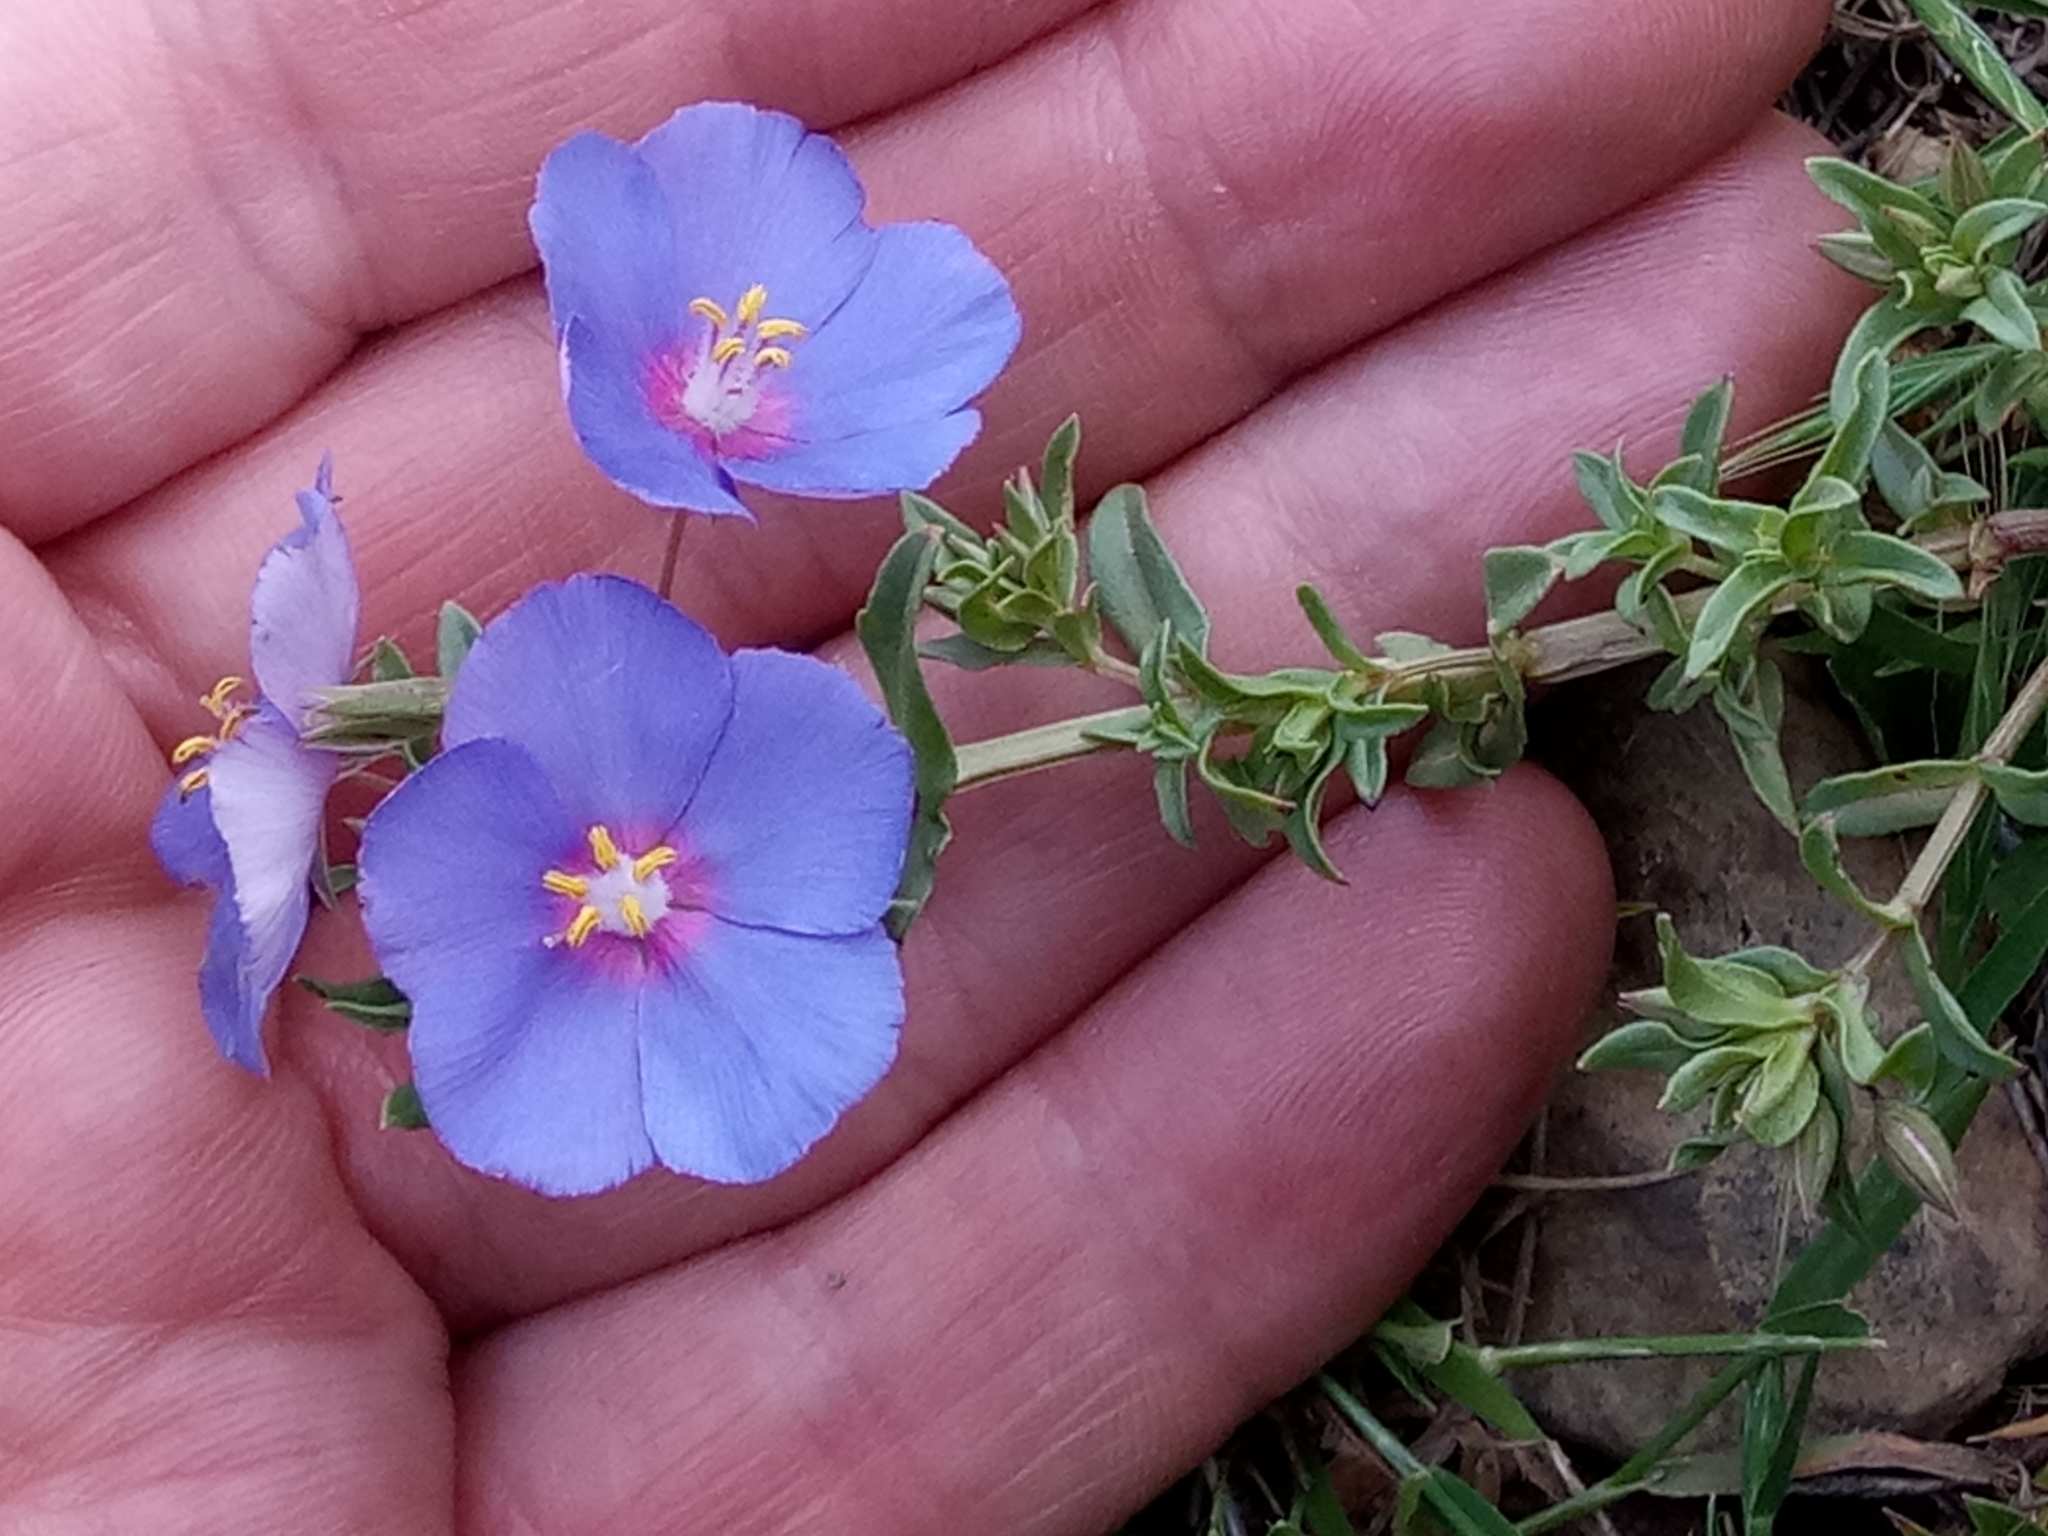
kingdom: Plantae
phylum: Tracheophyta
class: Magnoliopsida
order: Ericales
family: Primulaceae
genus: Lysimachia
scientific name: Lysimachia monelli
